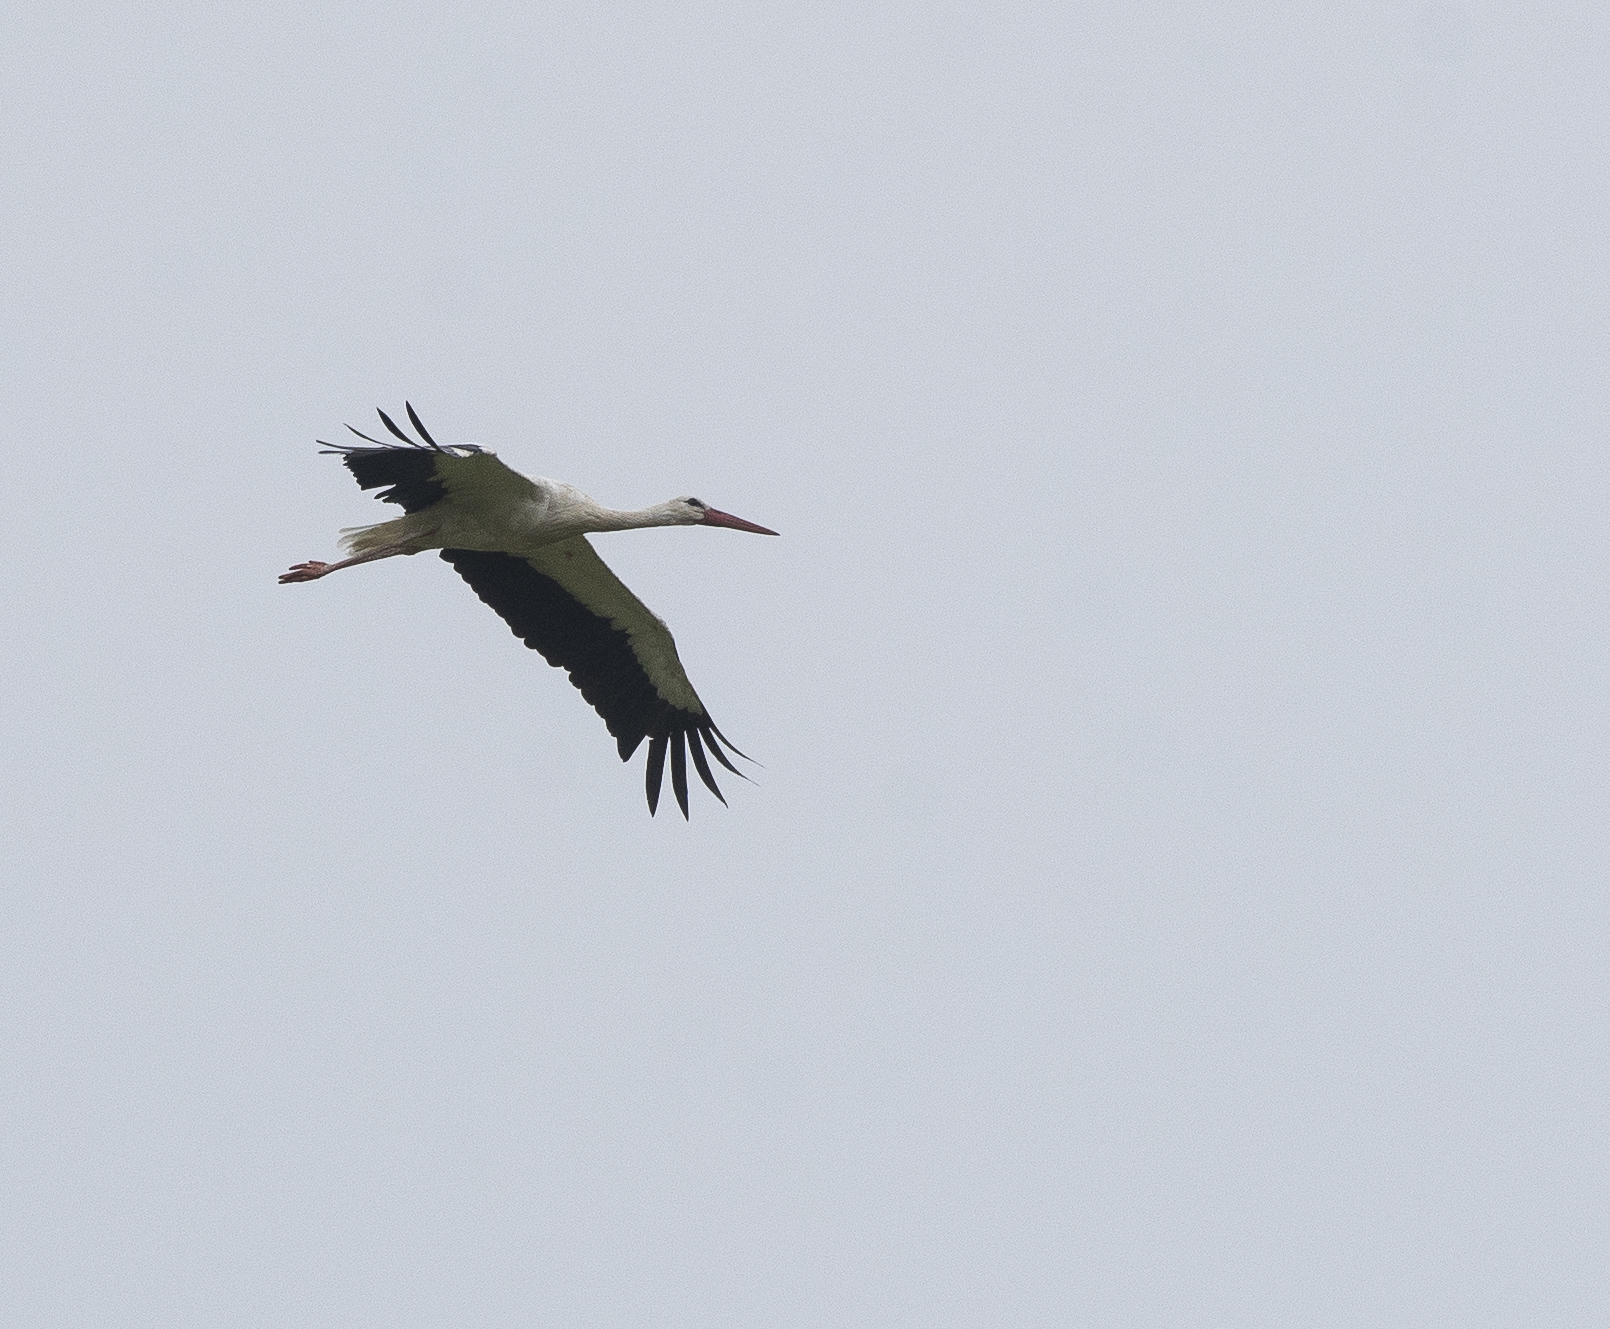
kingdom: Animalia
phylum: Chordata
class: Aves
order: Ciconiiformes
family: Ciconiidae
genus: Ciconia
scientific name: Ciconia ciconia
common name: White stork
